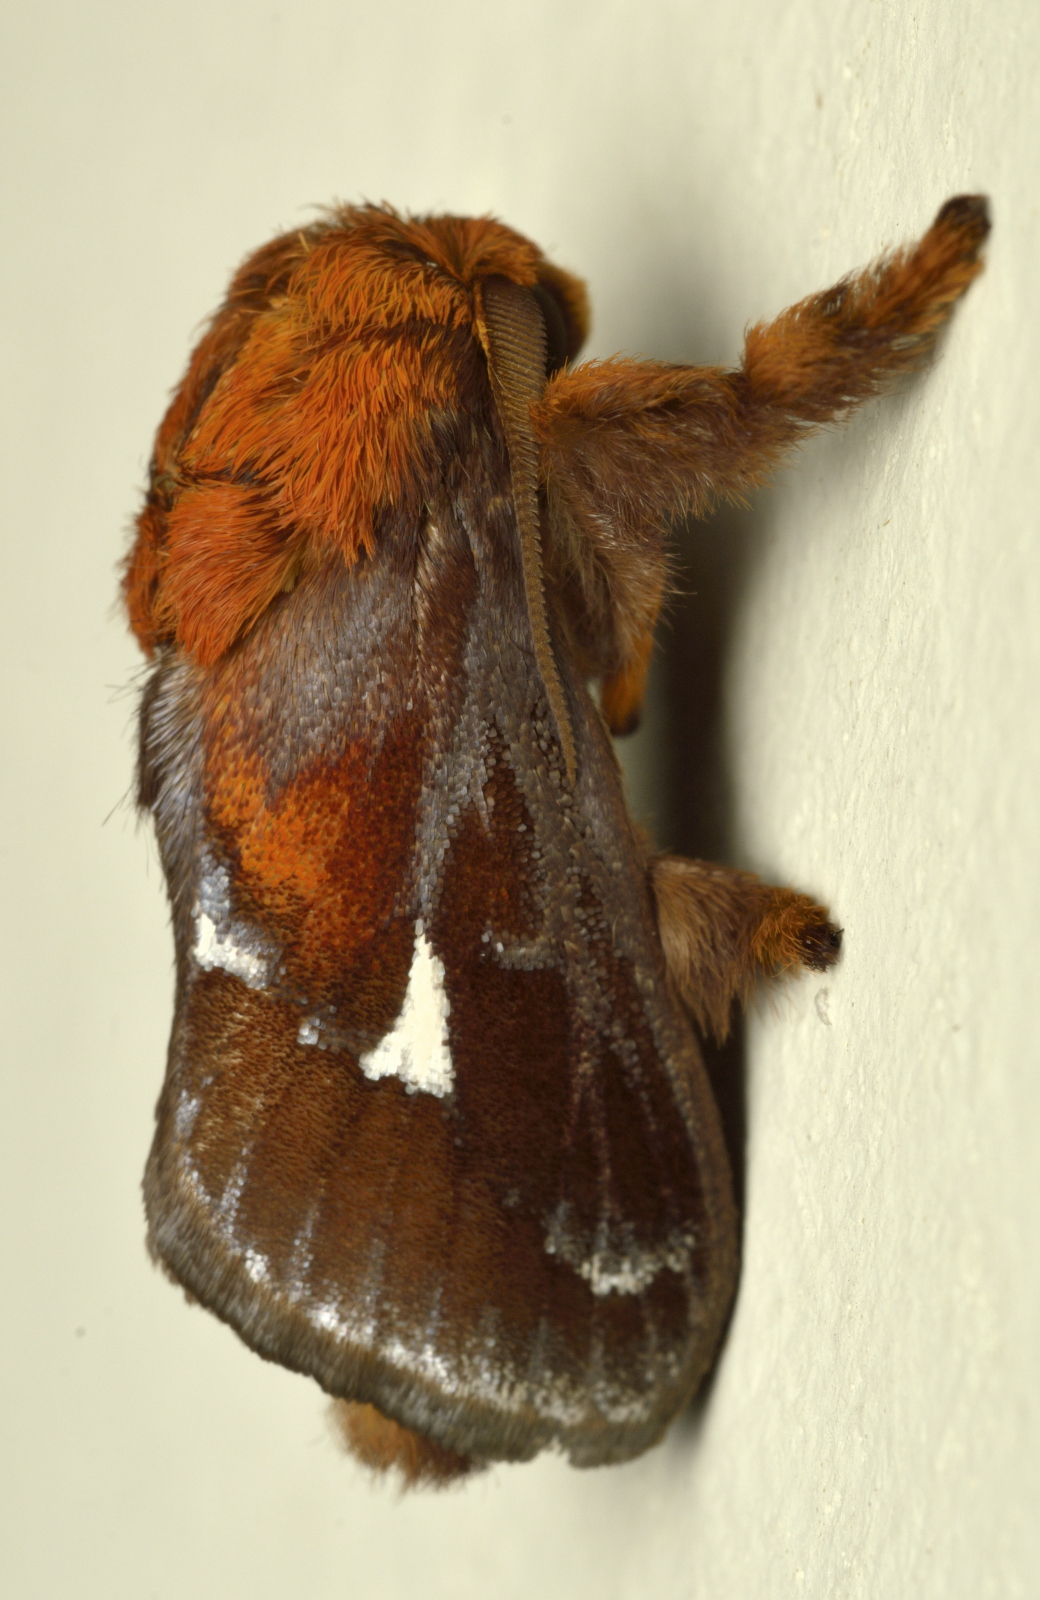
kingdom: Animalia
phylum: Arthropoda
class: Insecta
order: Lepidoptera
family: Limacodidae
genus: Miresa
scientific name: Miresa pyronota
